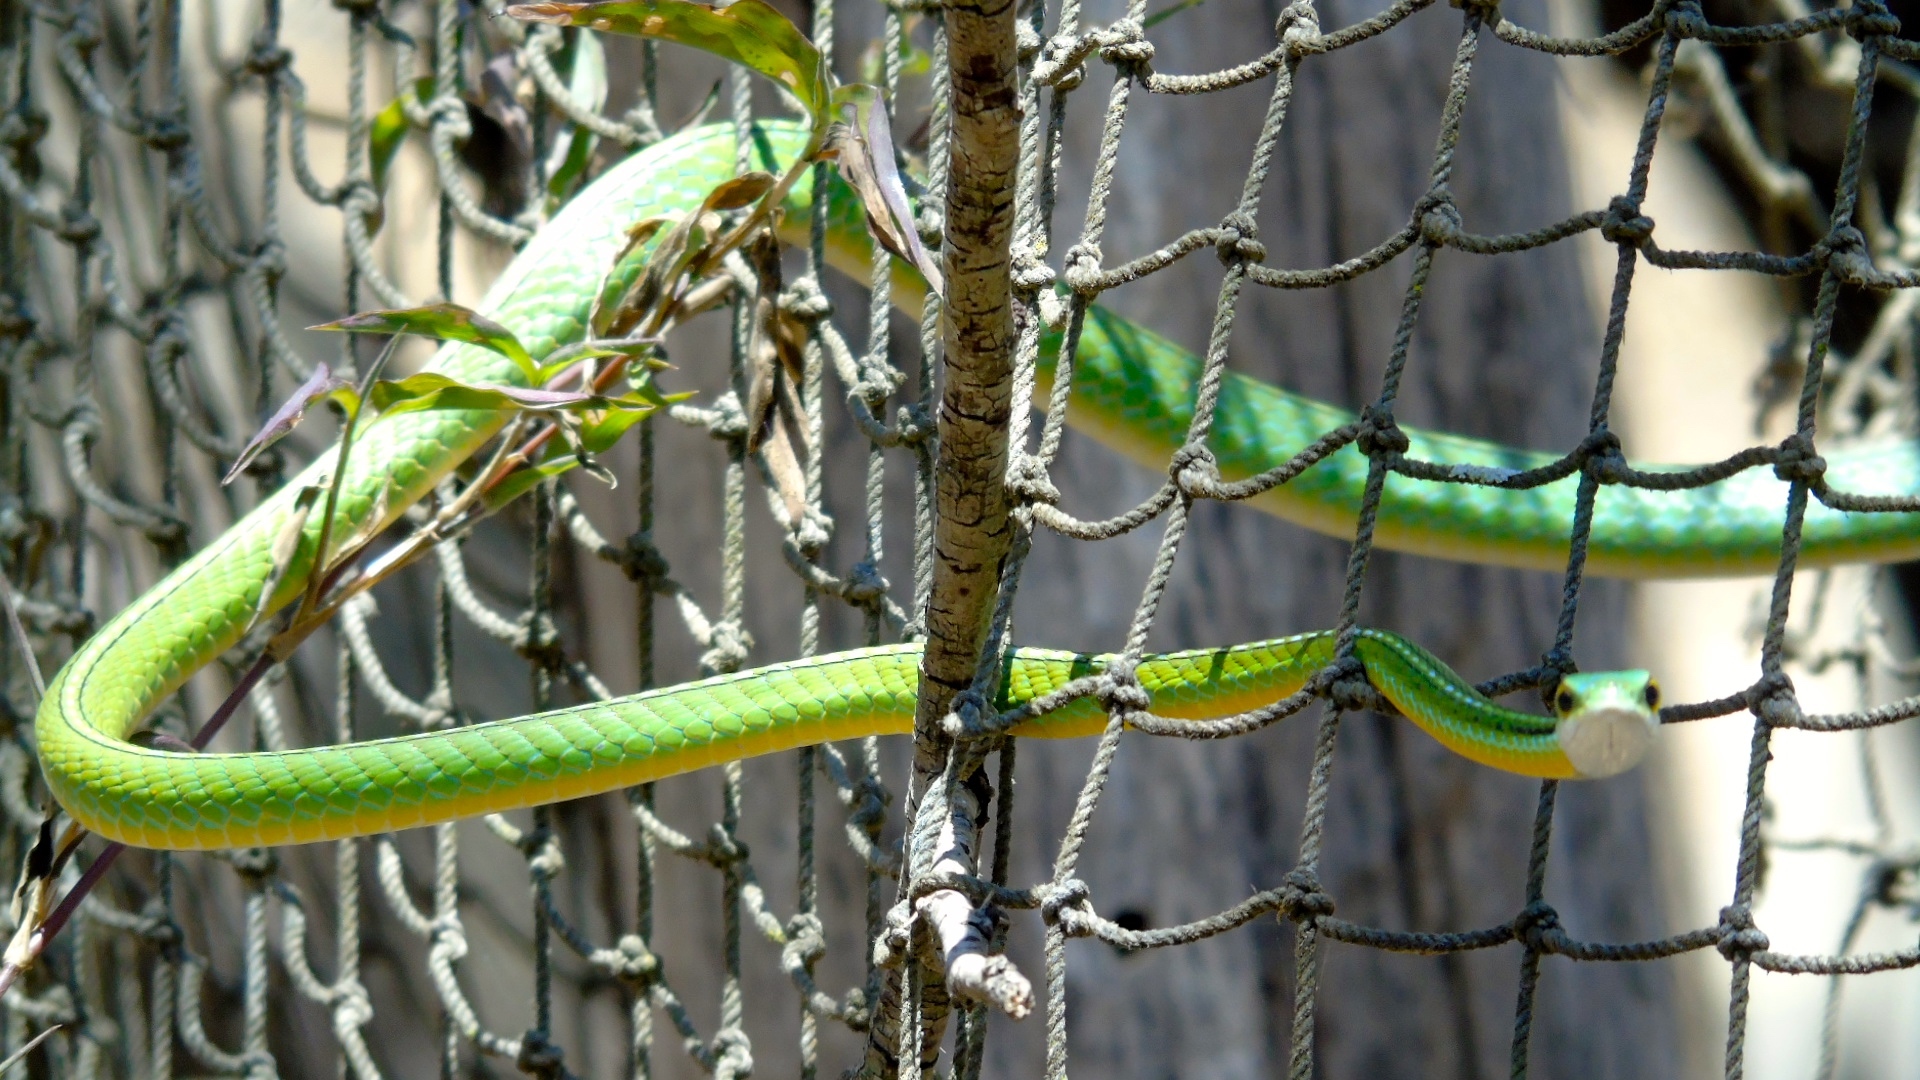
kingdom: Animalia
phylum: Chordata
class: Squamata
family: Colubridae
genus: Leptophis
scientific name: Leptophis diplotropis
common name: Pacific coast parrot snake
